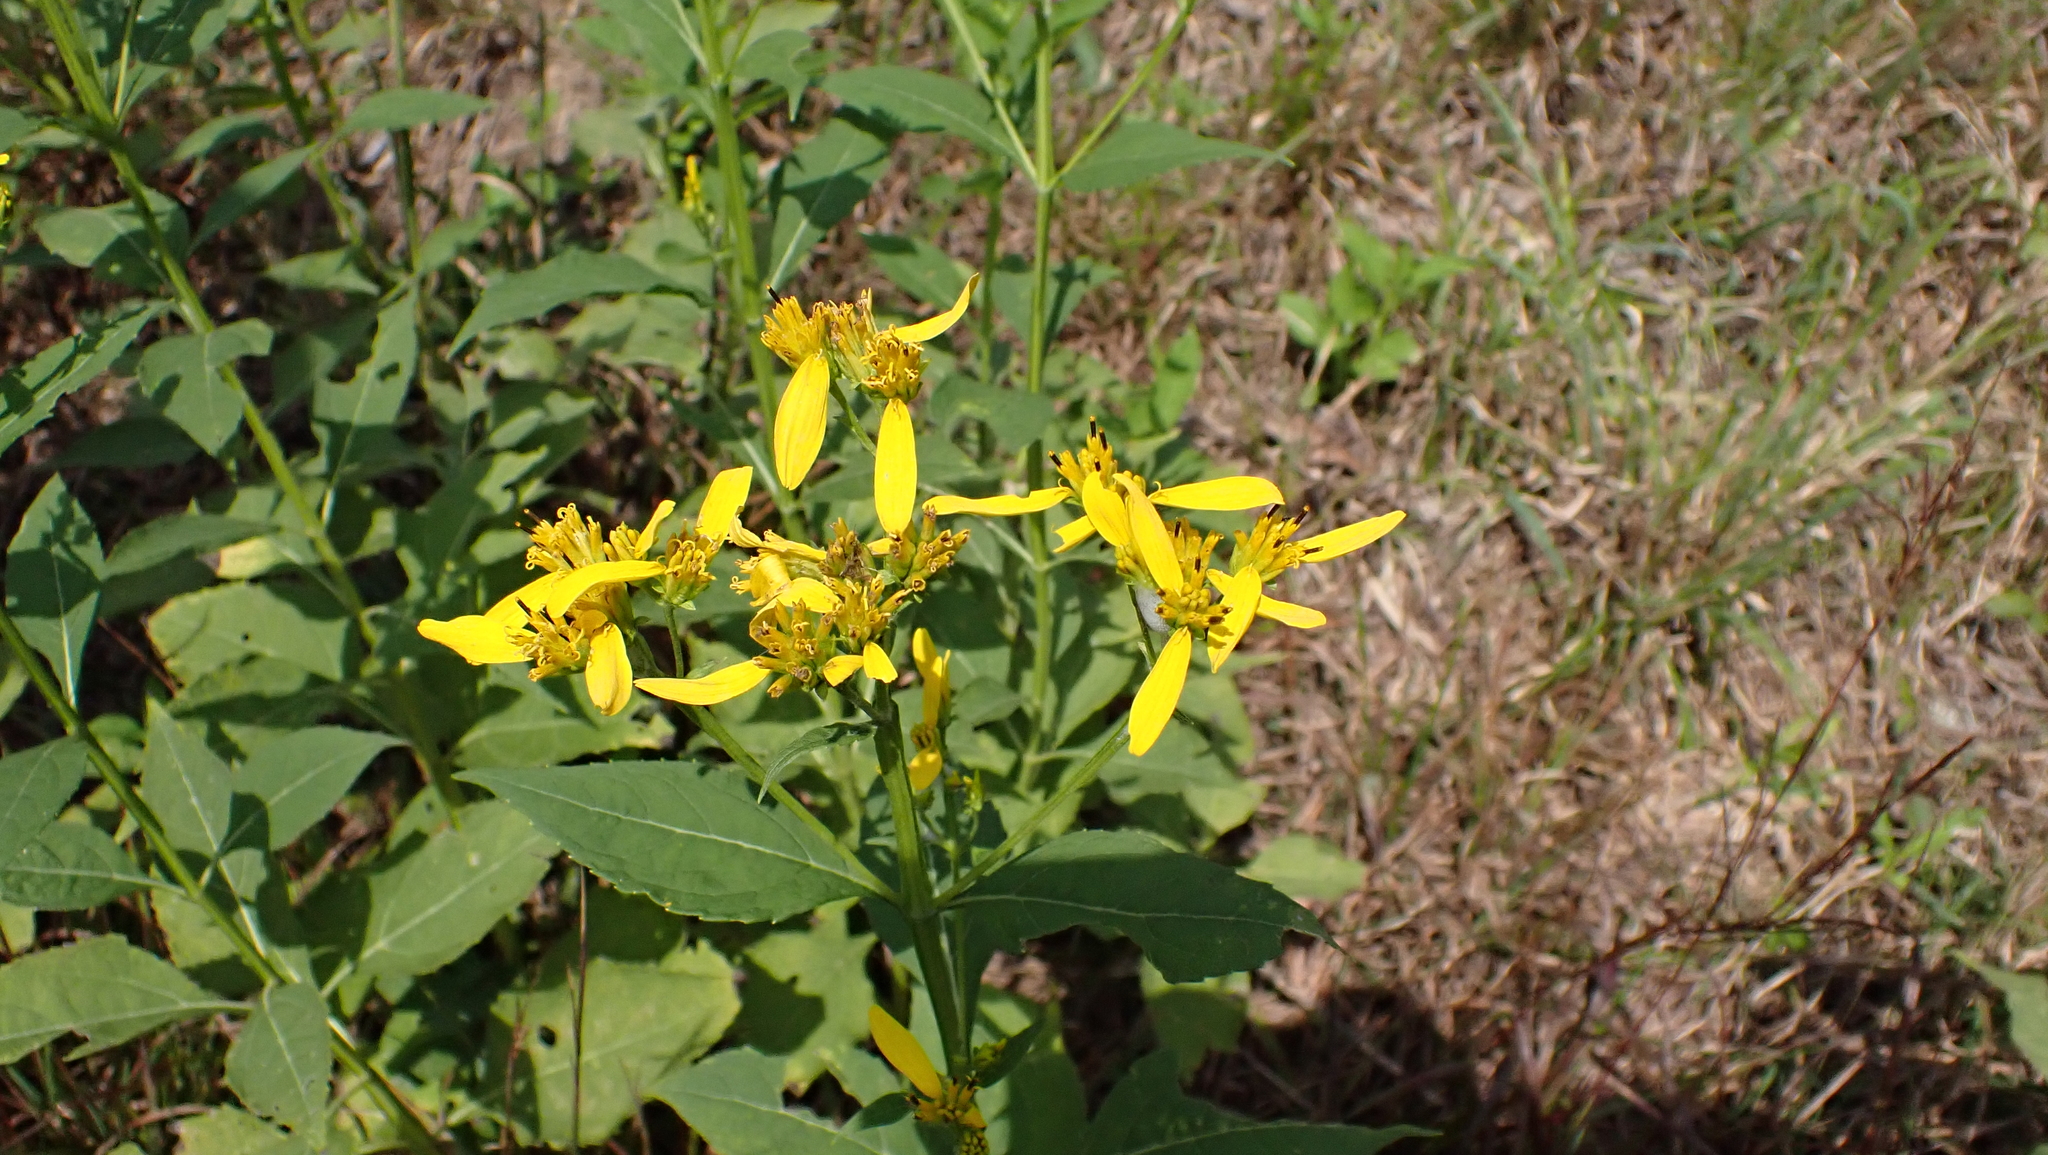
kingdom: Plantae
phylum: Tracheophyta
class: Magnoliopsida
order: Asterales
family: Asteraceae
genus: Verbesina
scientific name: Verbesina occidentalis
